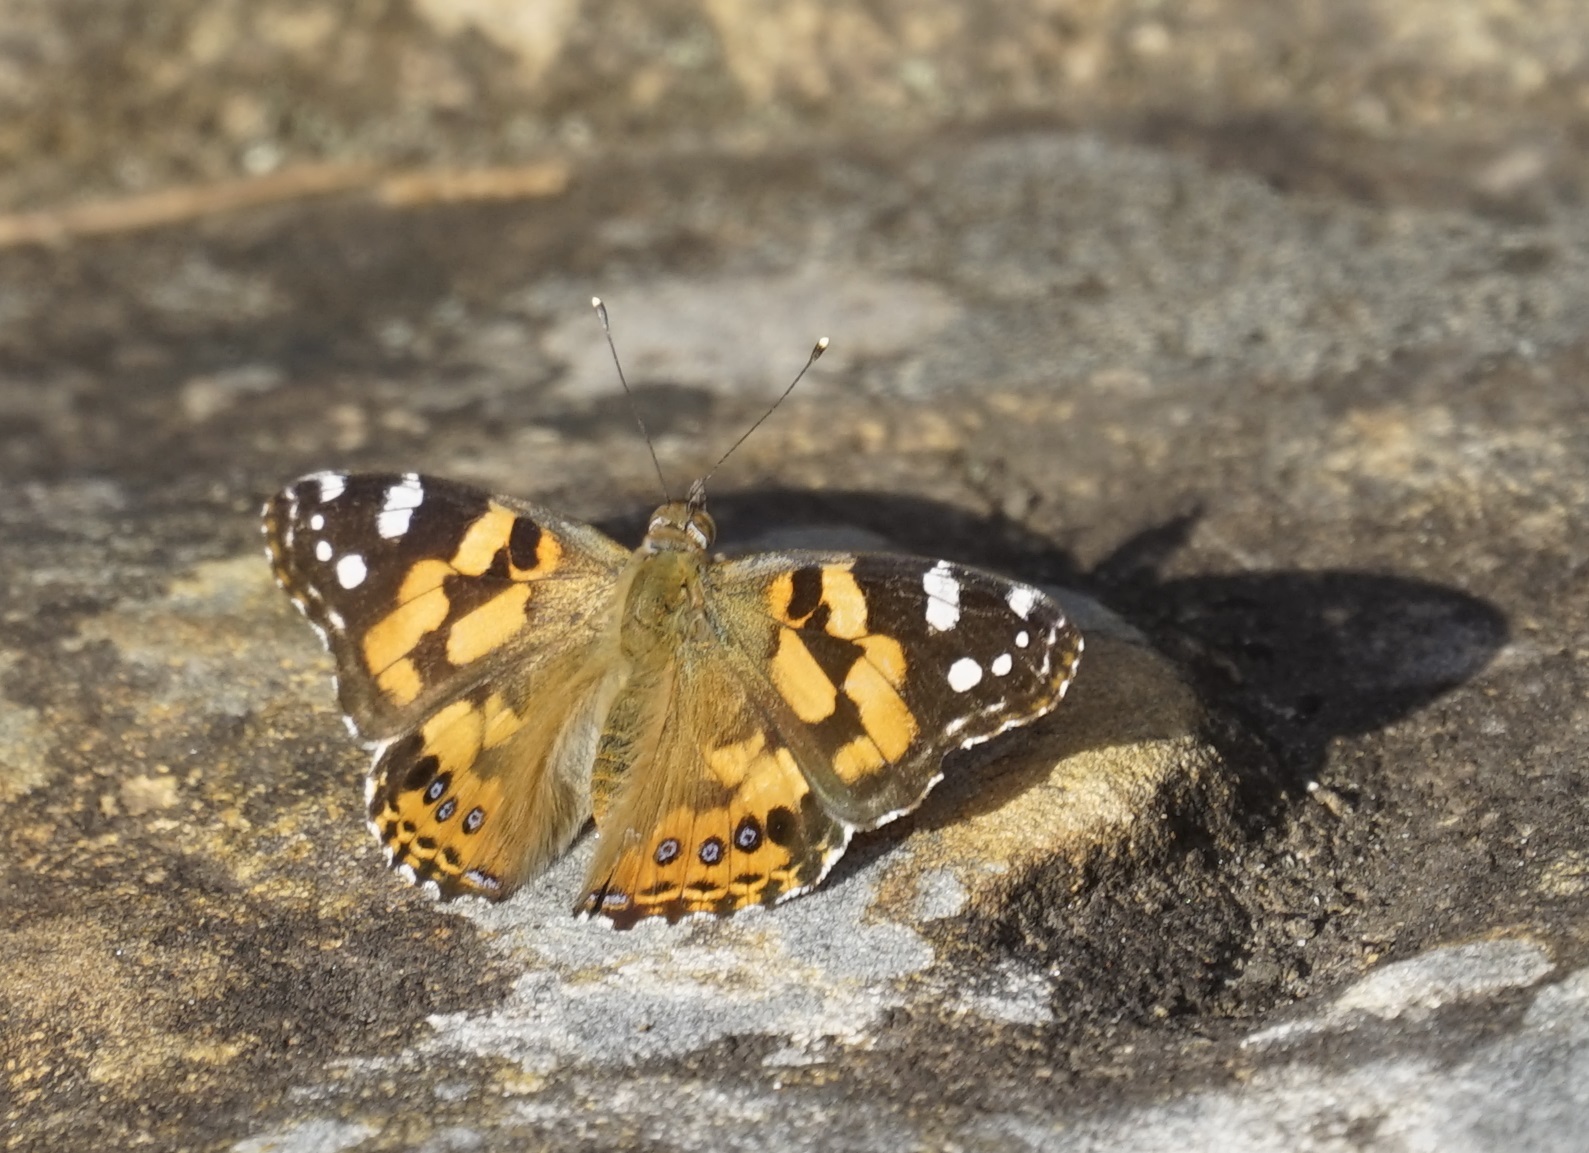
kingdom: Animalia
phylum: Arthropoda
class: Insecta
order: Lepidoptera
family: Nymphalidae
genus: Vanessa
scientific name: Vanessa kershawi
